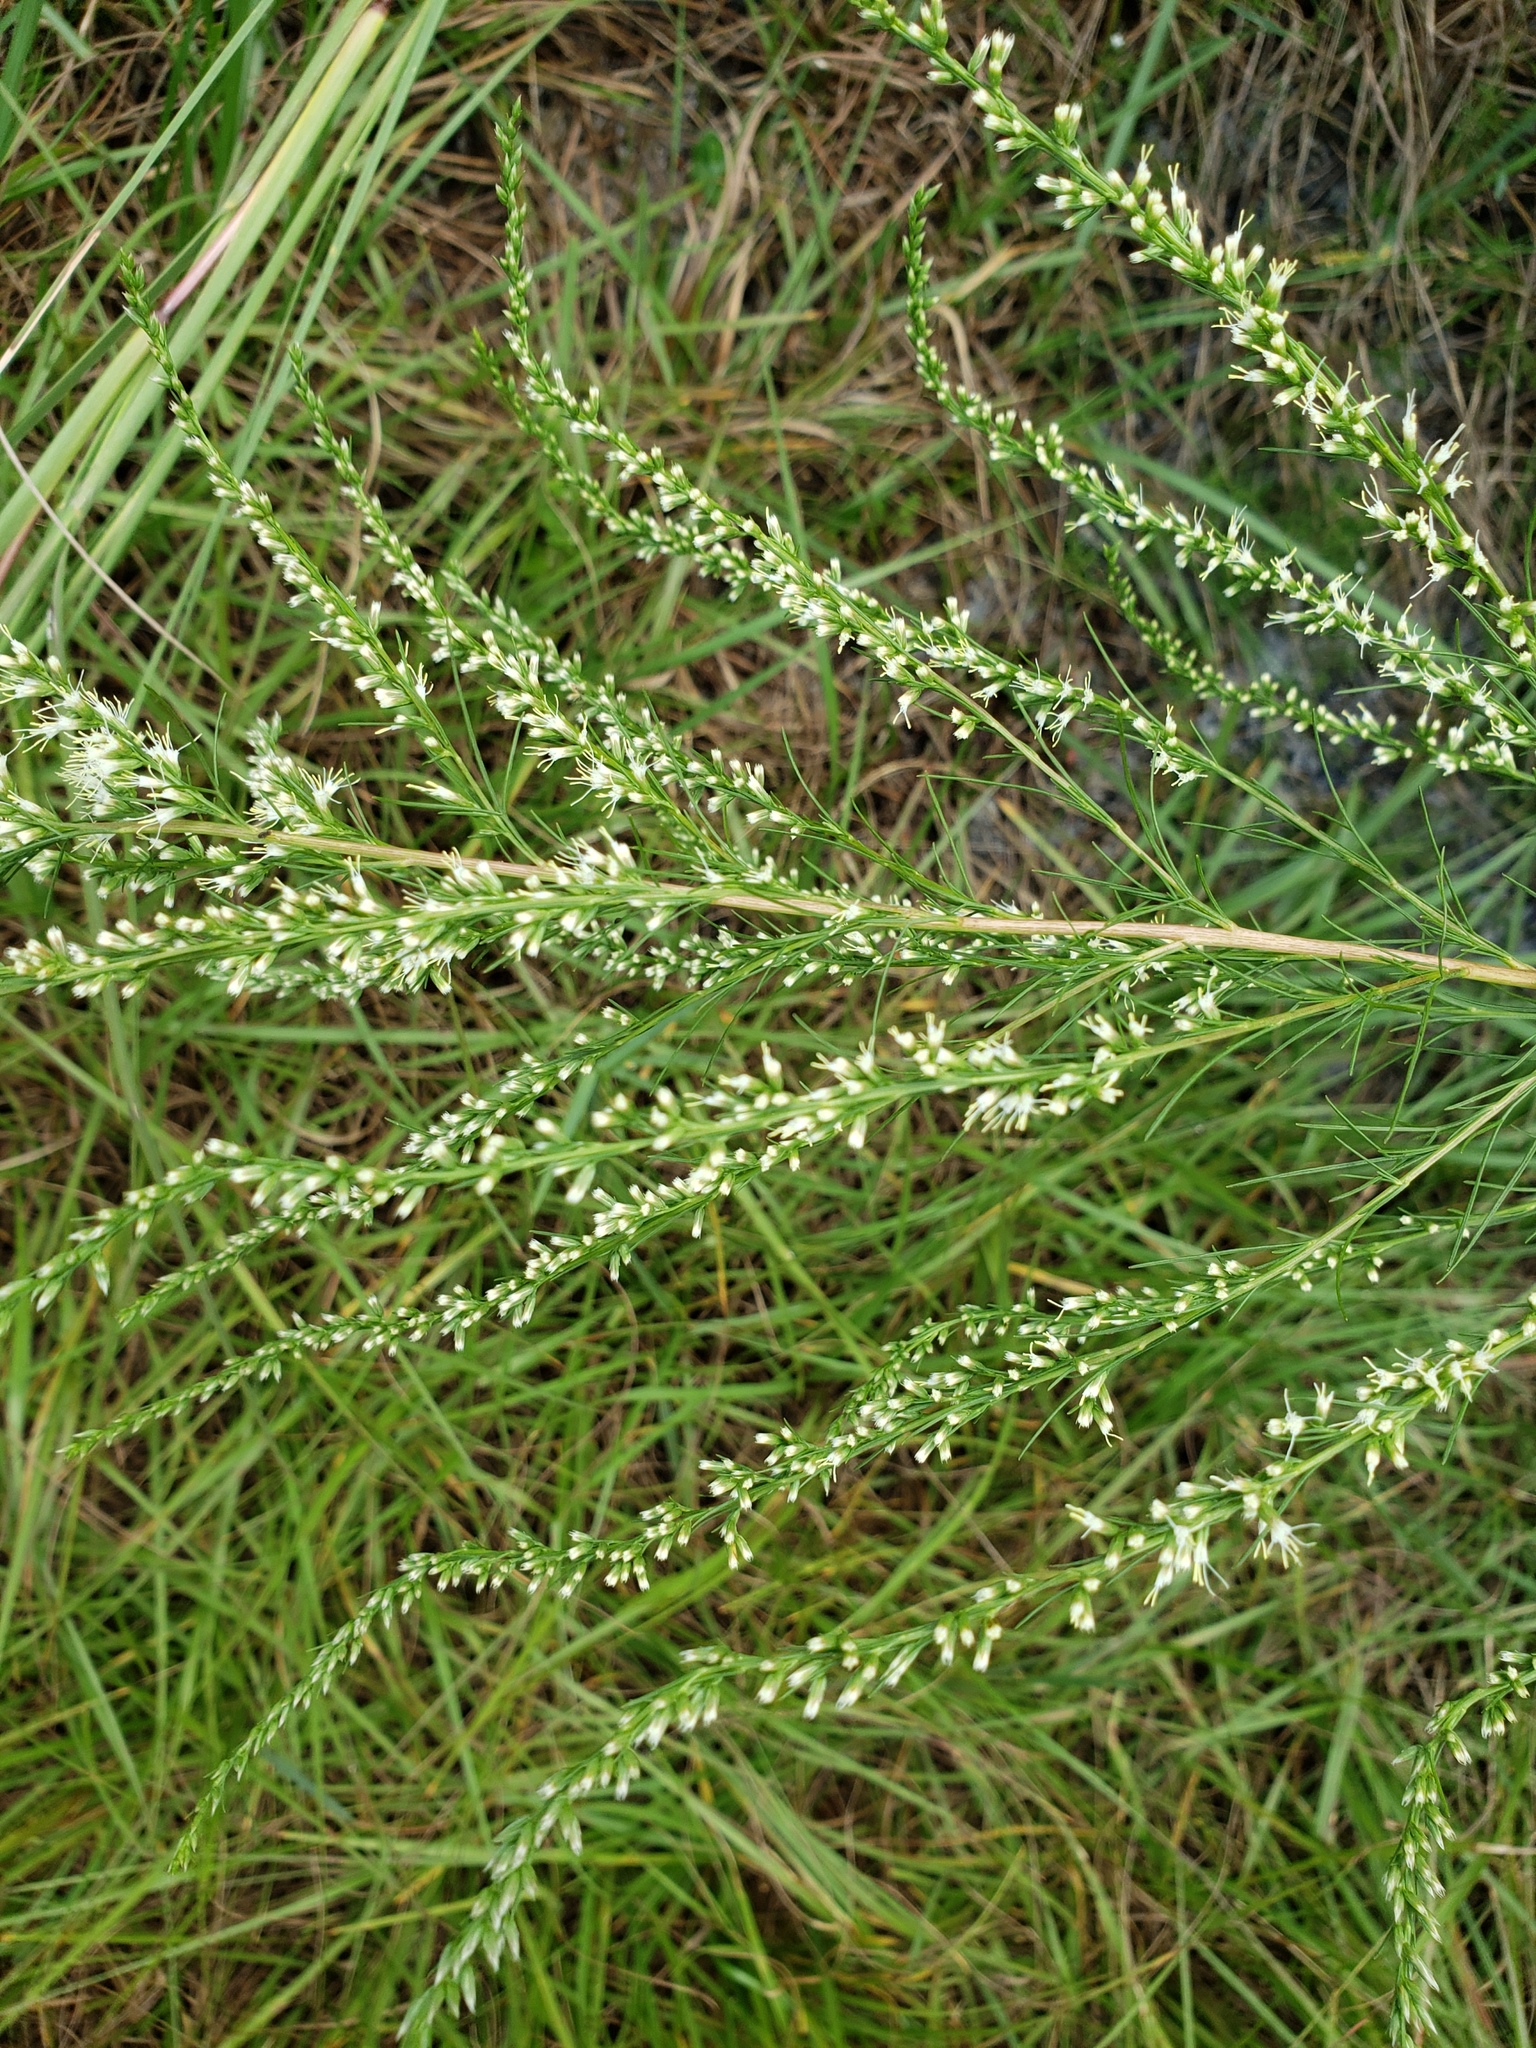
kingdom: Plantae
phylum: Tracheophyta
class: Magnoliopsida
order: Asterales
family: Asteraceae
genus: Eupatorium
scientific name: Eupatorium capillifolium
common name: Dog-fennel
